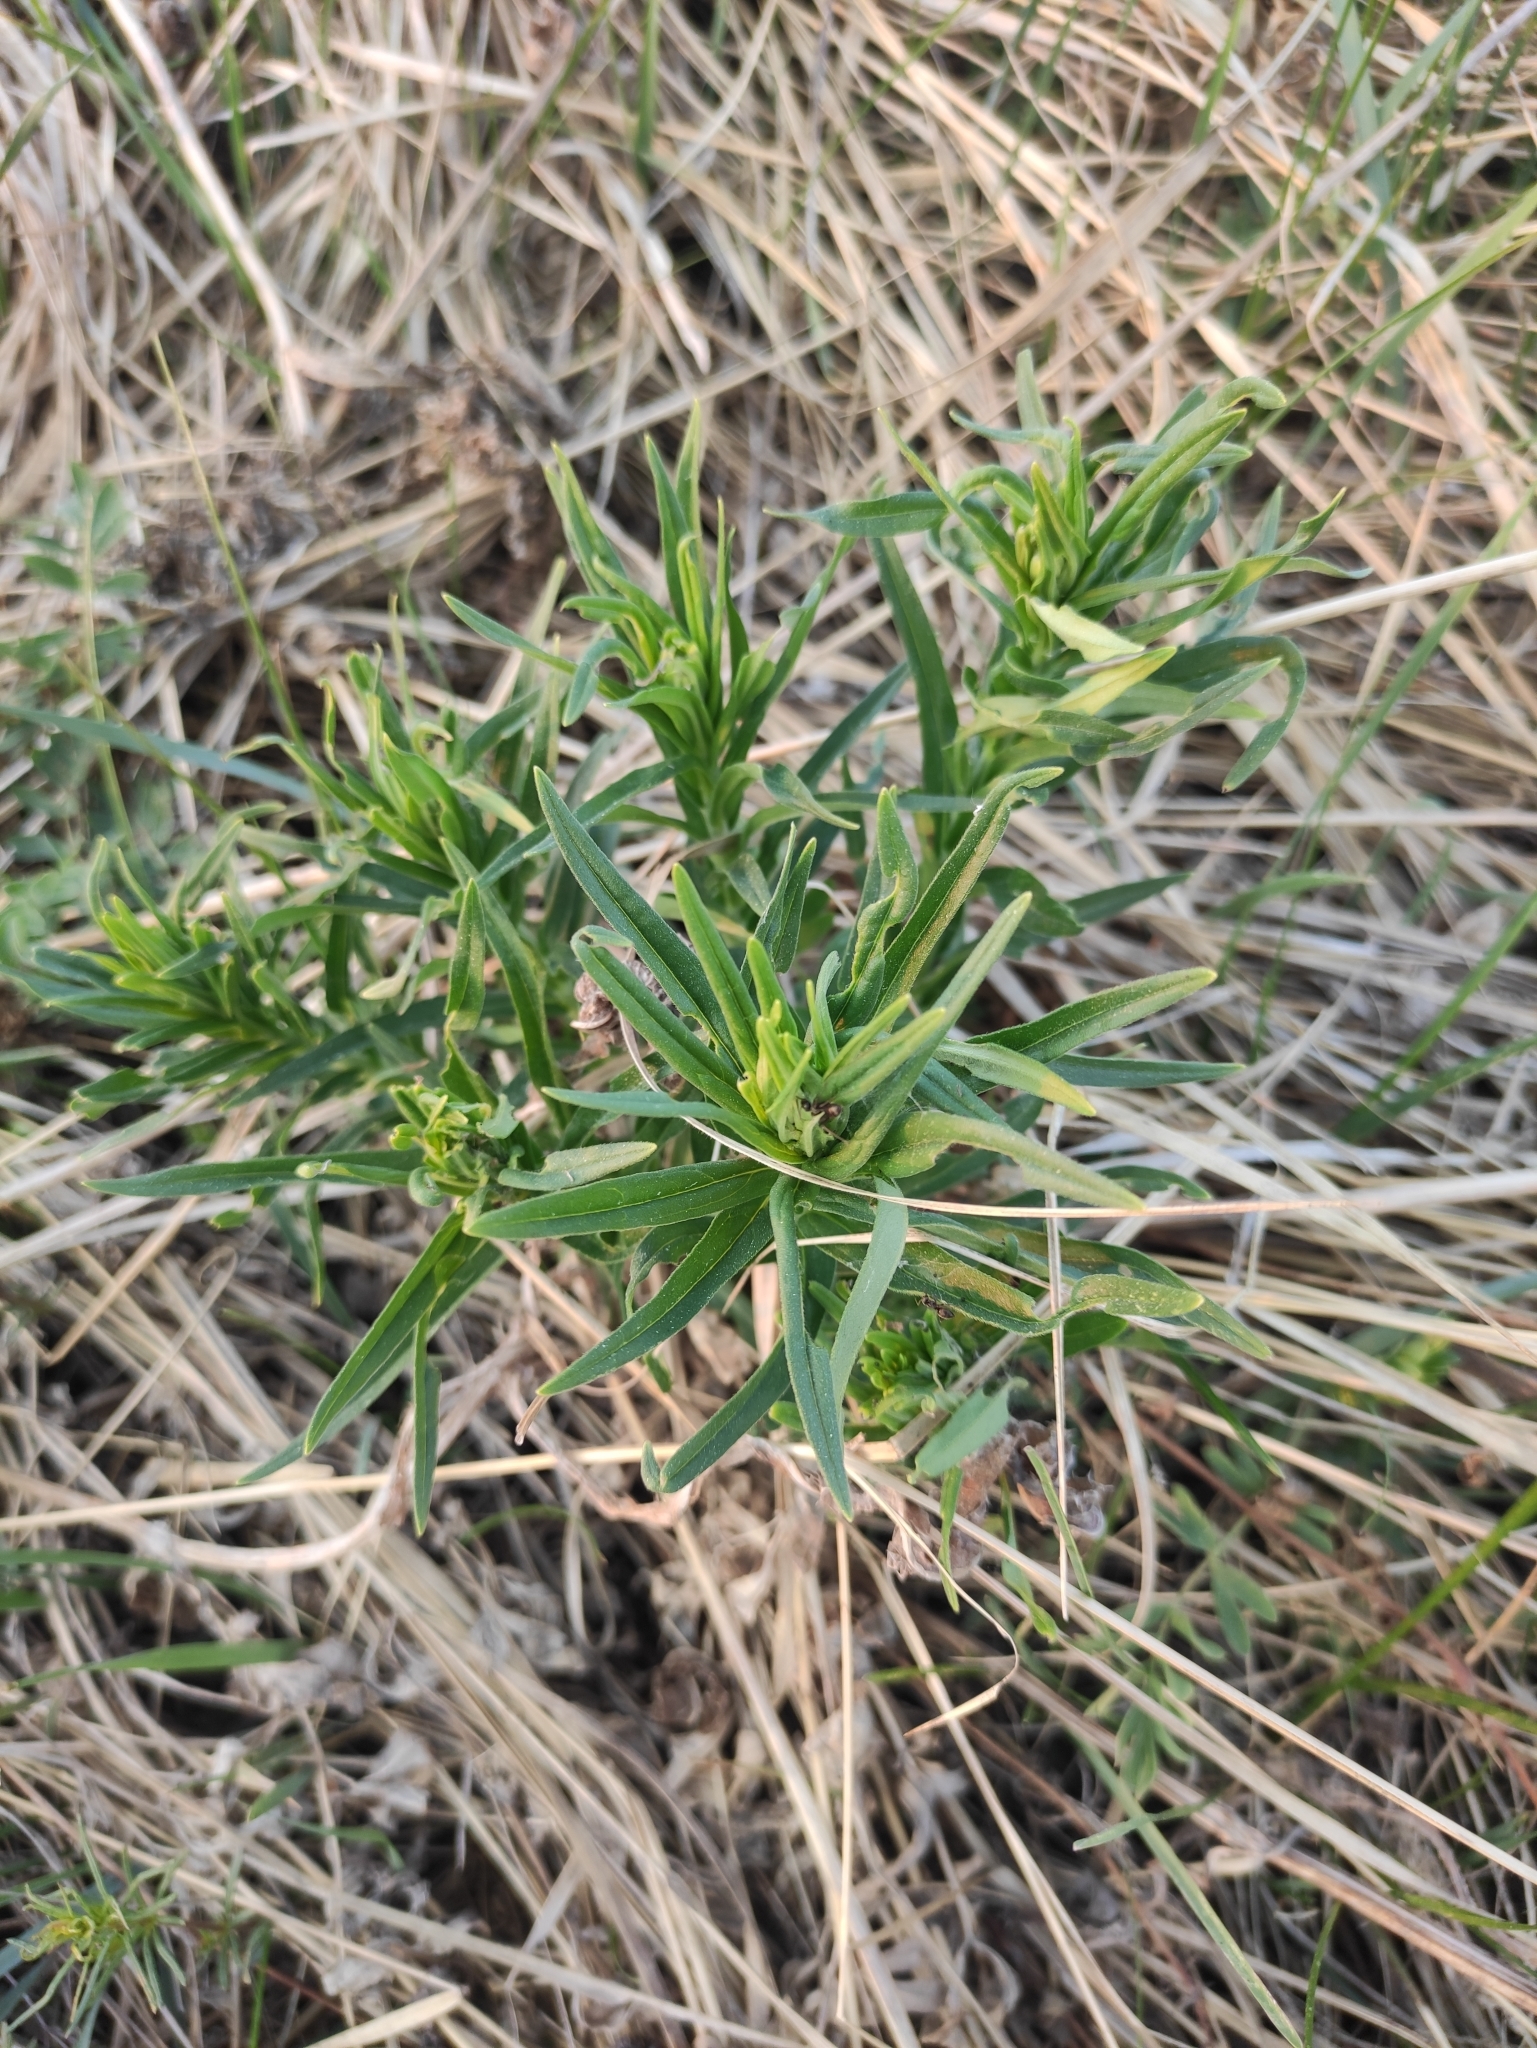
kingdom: Plantae
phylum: Tracheophyta
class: Magnoliopsida
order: Boraginales
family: Boraginaceae
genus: Lithospermum
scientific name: Lithospermum officinale
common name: Common gromwell
